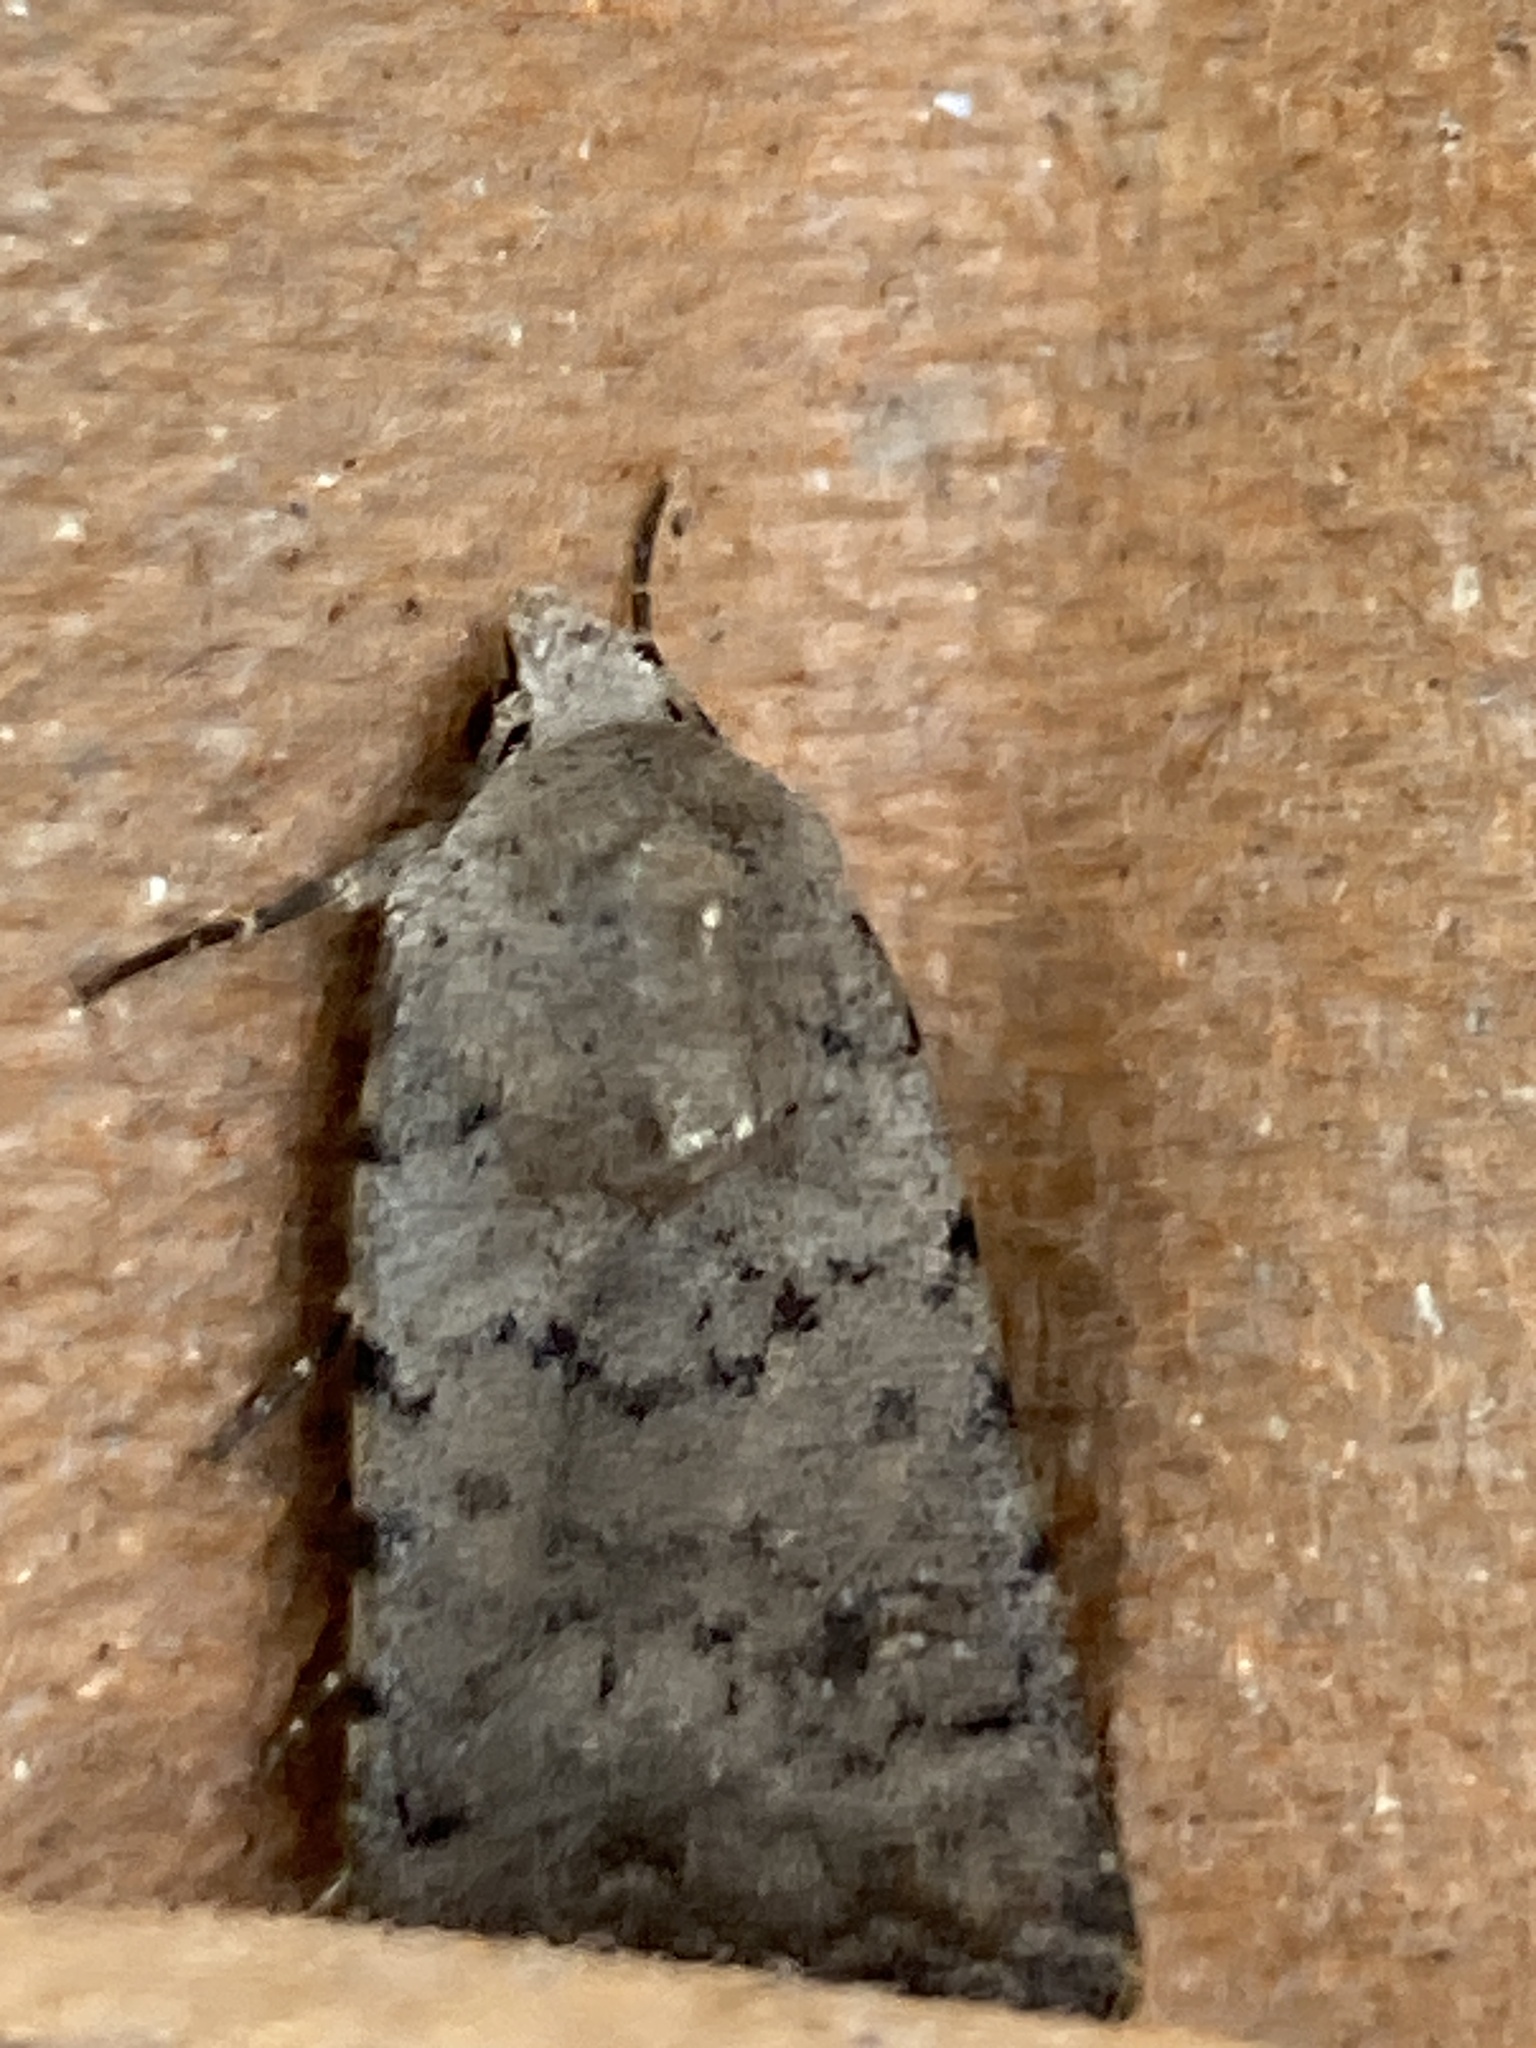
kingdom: Animalia
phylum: Arthropoda
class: Insecta
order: Lepidoptera
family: Noctuidae
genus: Caradrina
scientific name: Caradrina clavipalpis
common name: Pale mottled willow
